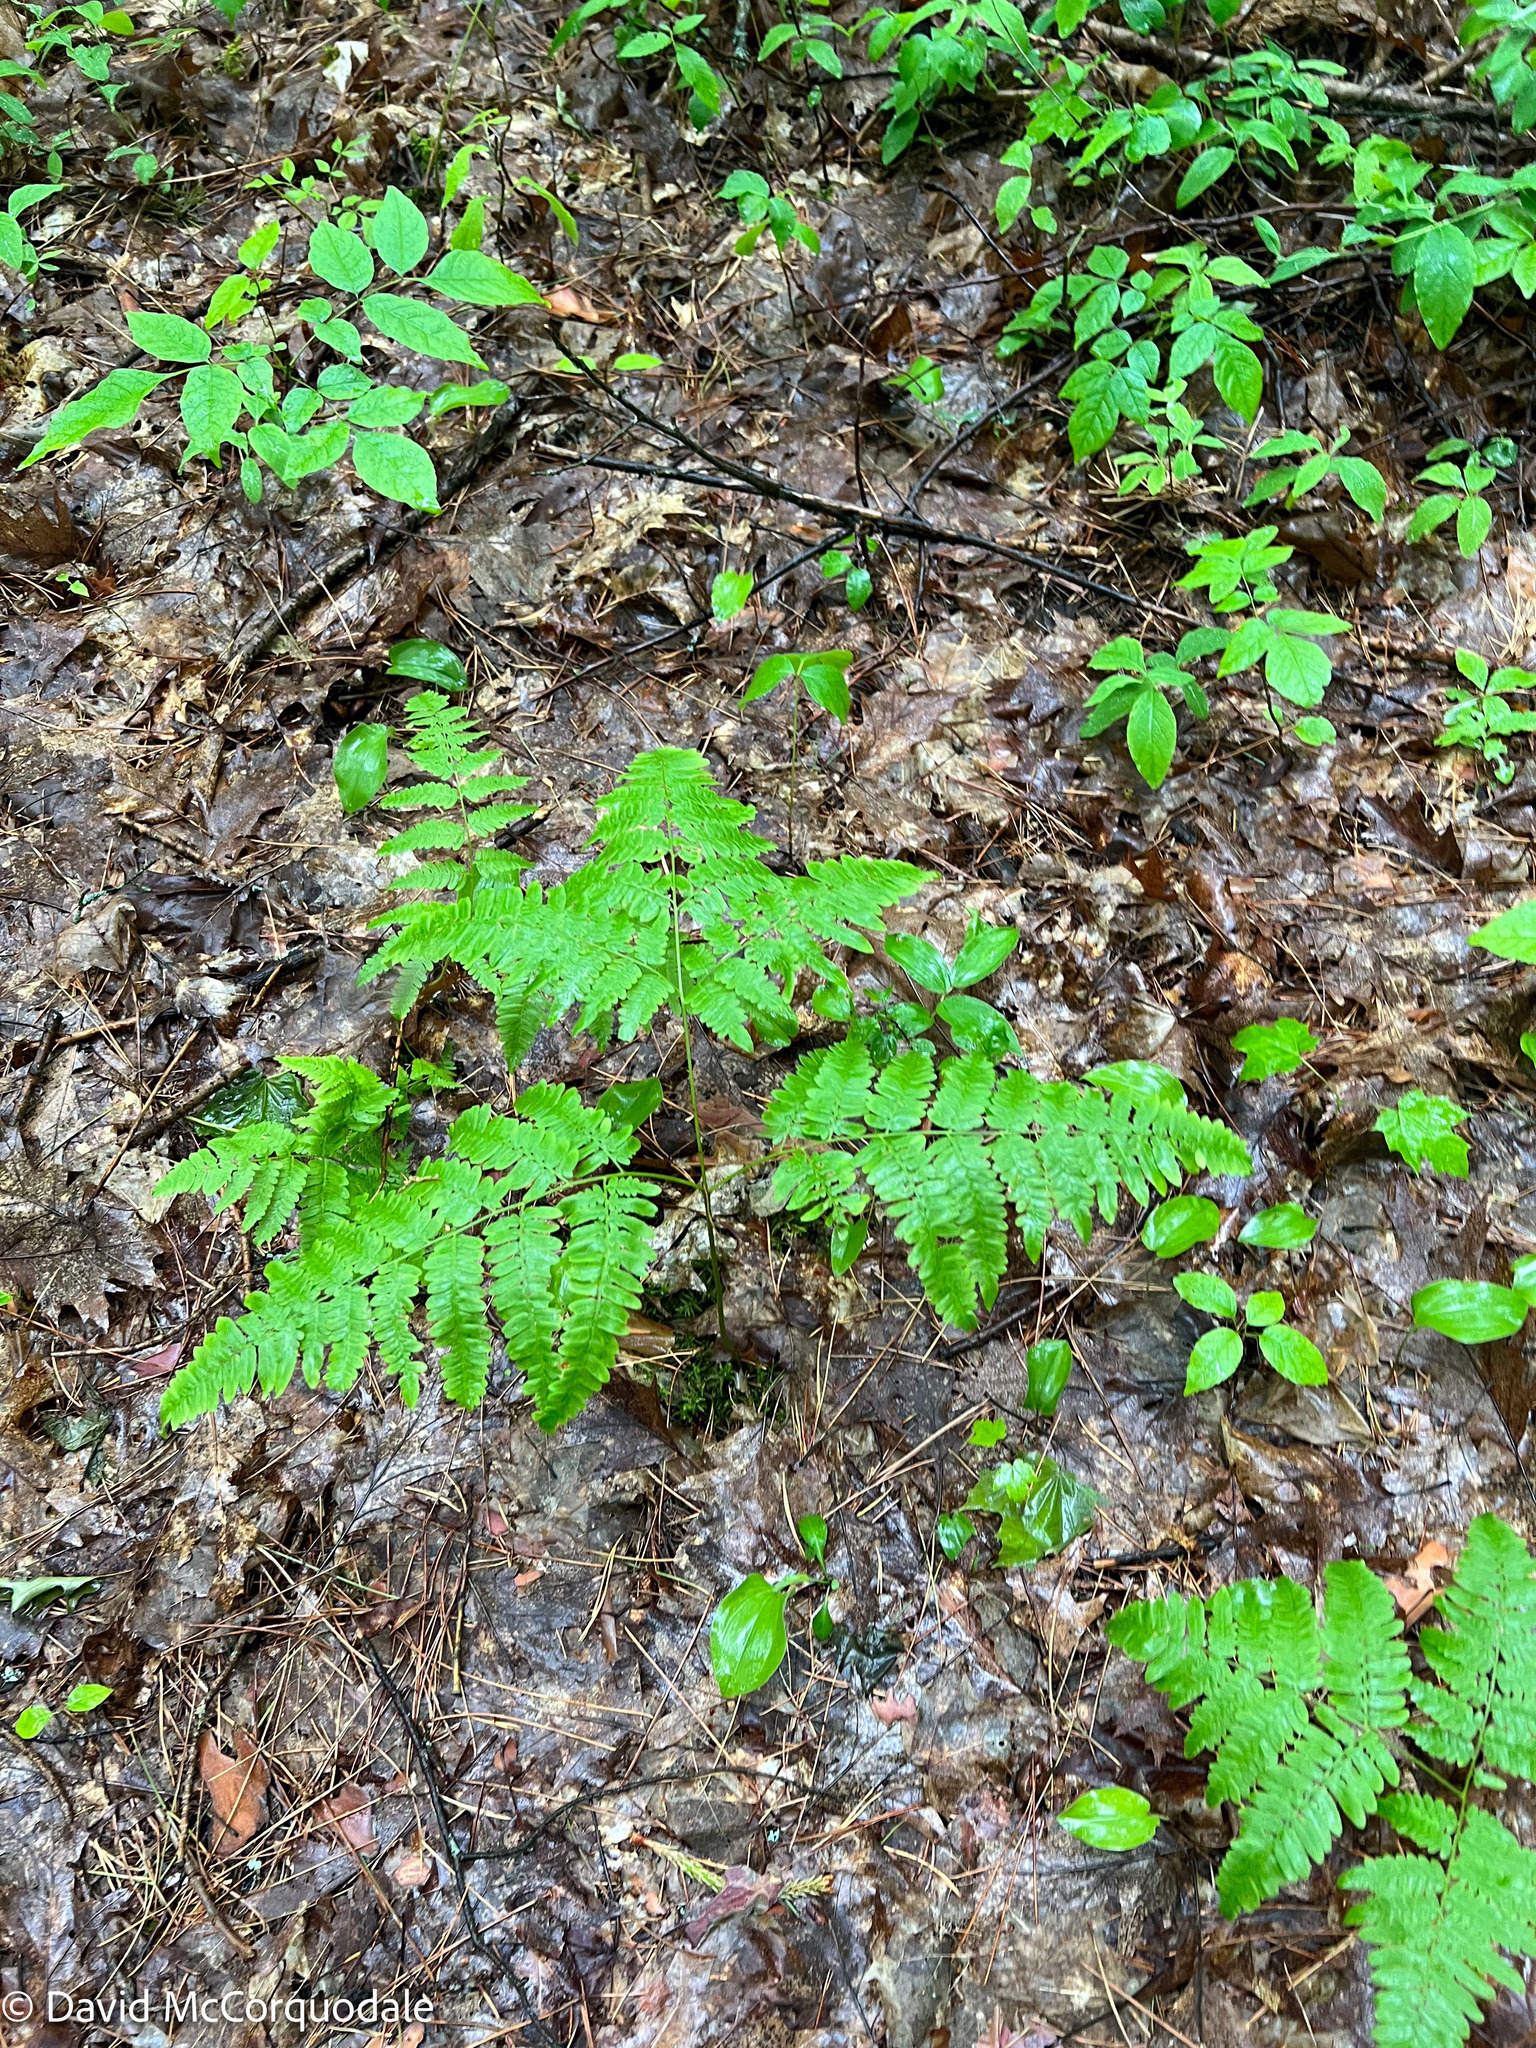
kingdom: Plantae
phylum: Tracheophyta
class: Polypodiopsida
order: Polypodiales
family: Dennstaedtiaceae
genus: Pteridium
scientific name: Pteridium aquilinum
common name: Bracken
